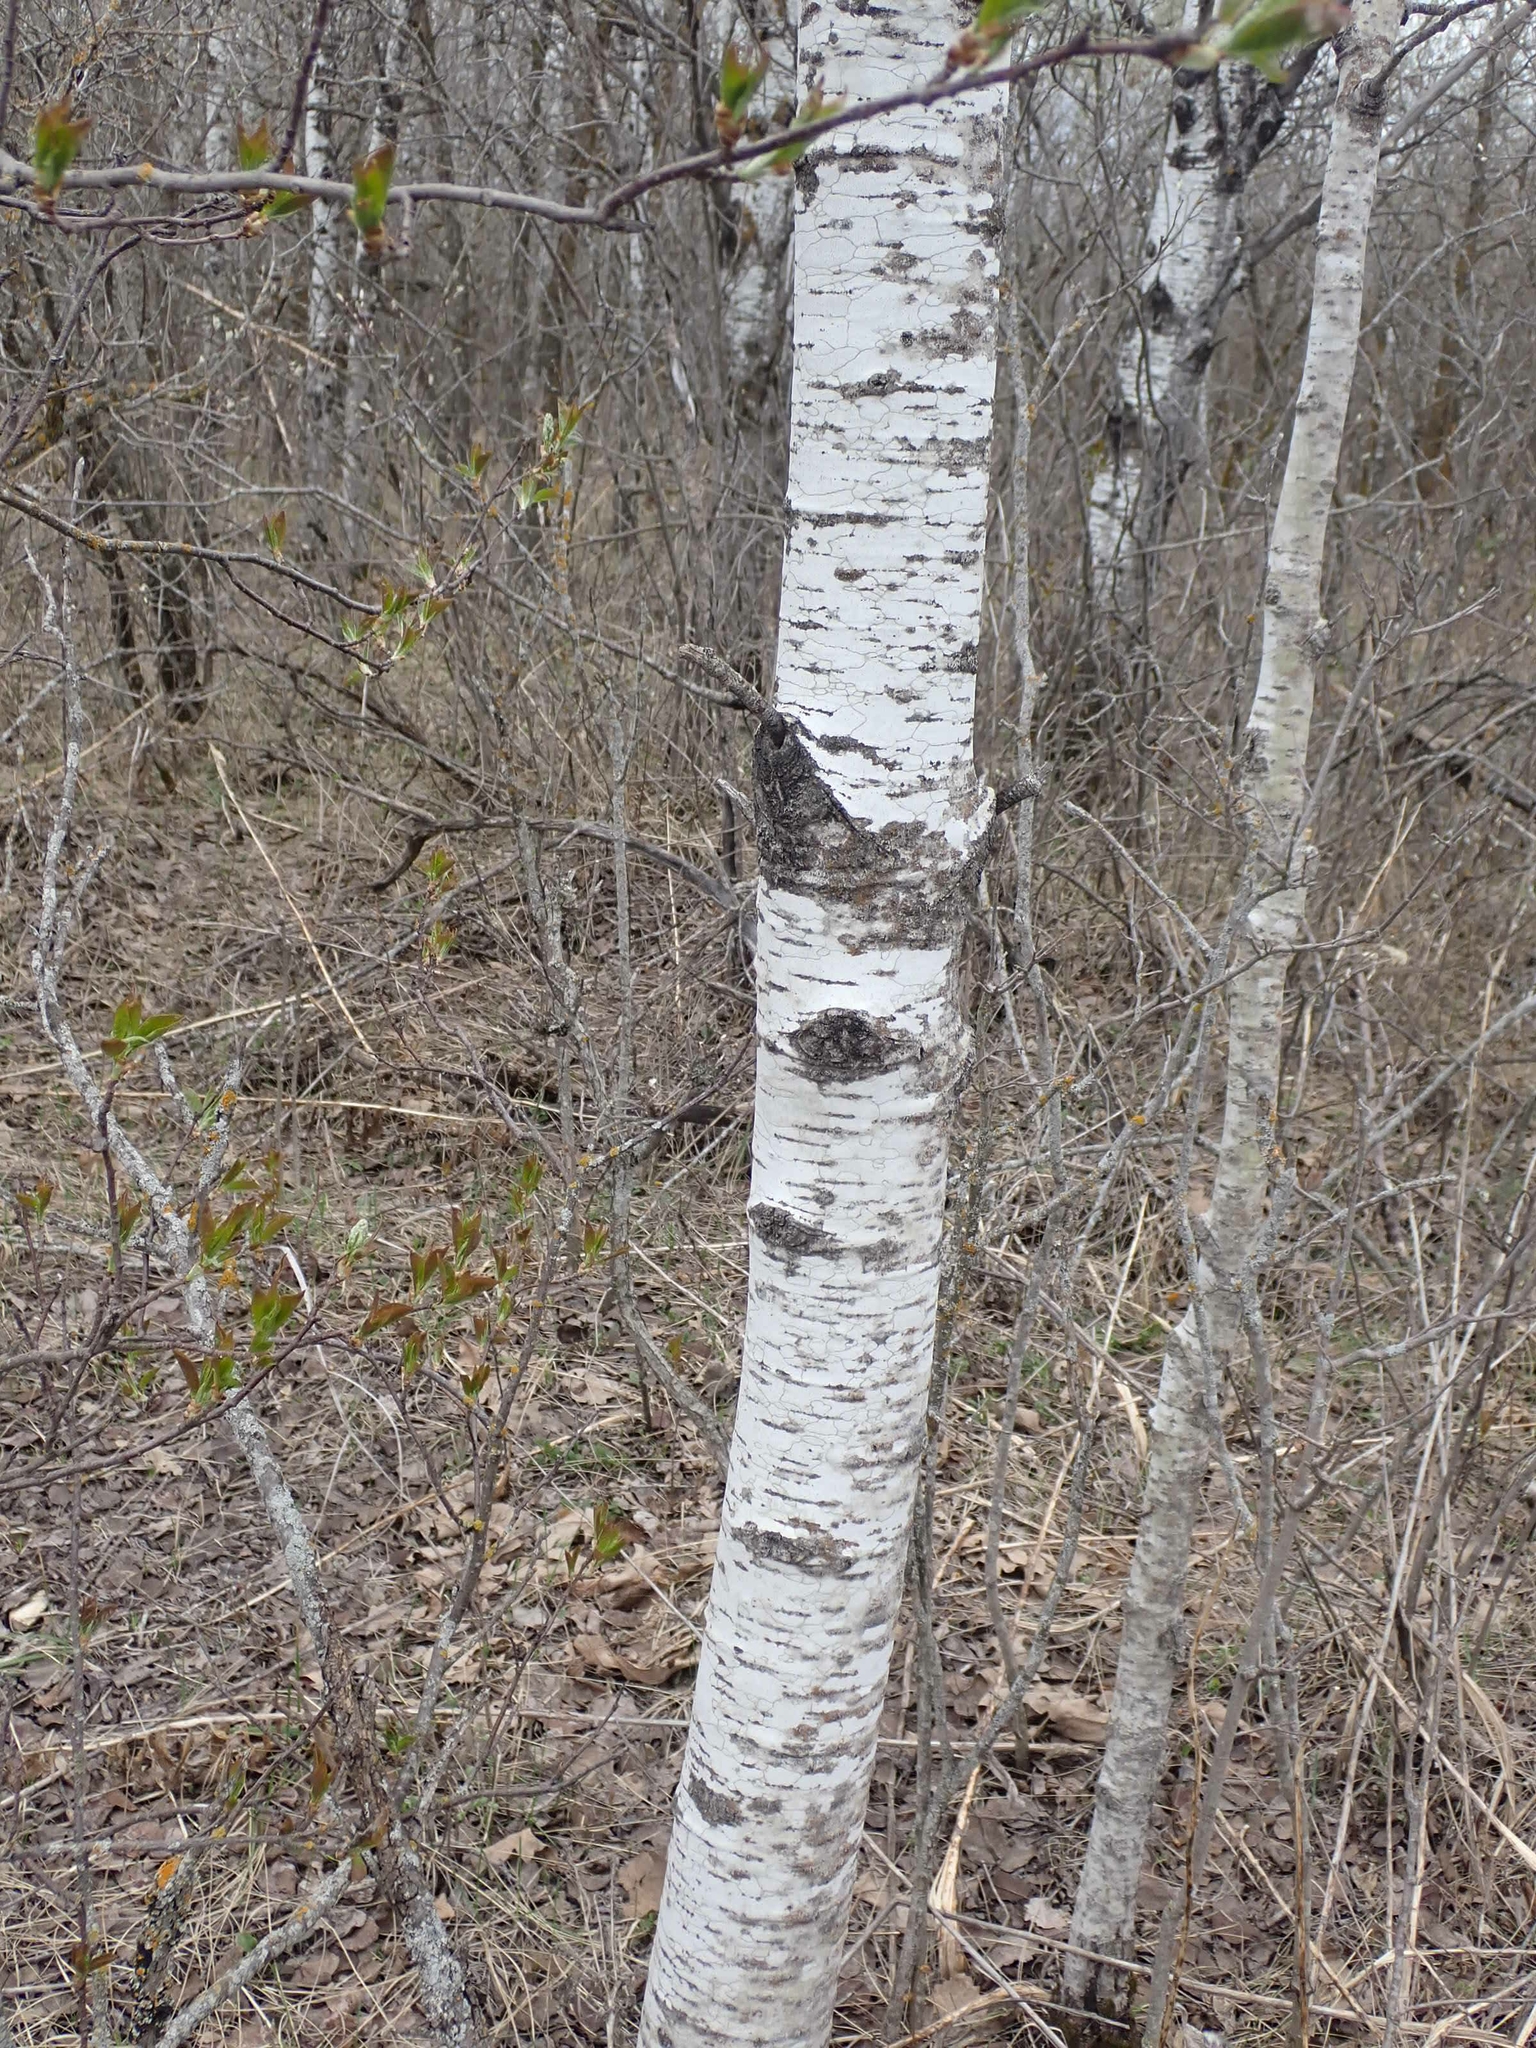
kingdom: Plantae
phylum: Tracheophyta
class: Magnoliopsida
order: Malpighiales
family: Salicaceae
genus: Populus
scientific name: Populus tremuloides
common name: Quaking aspen
